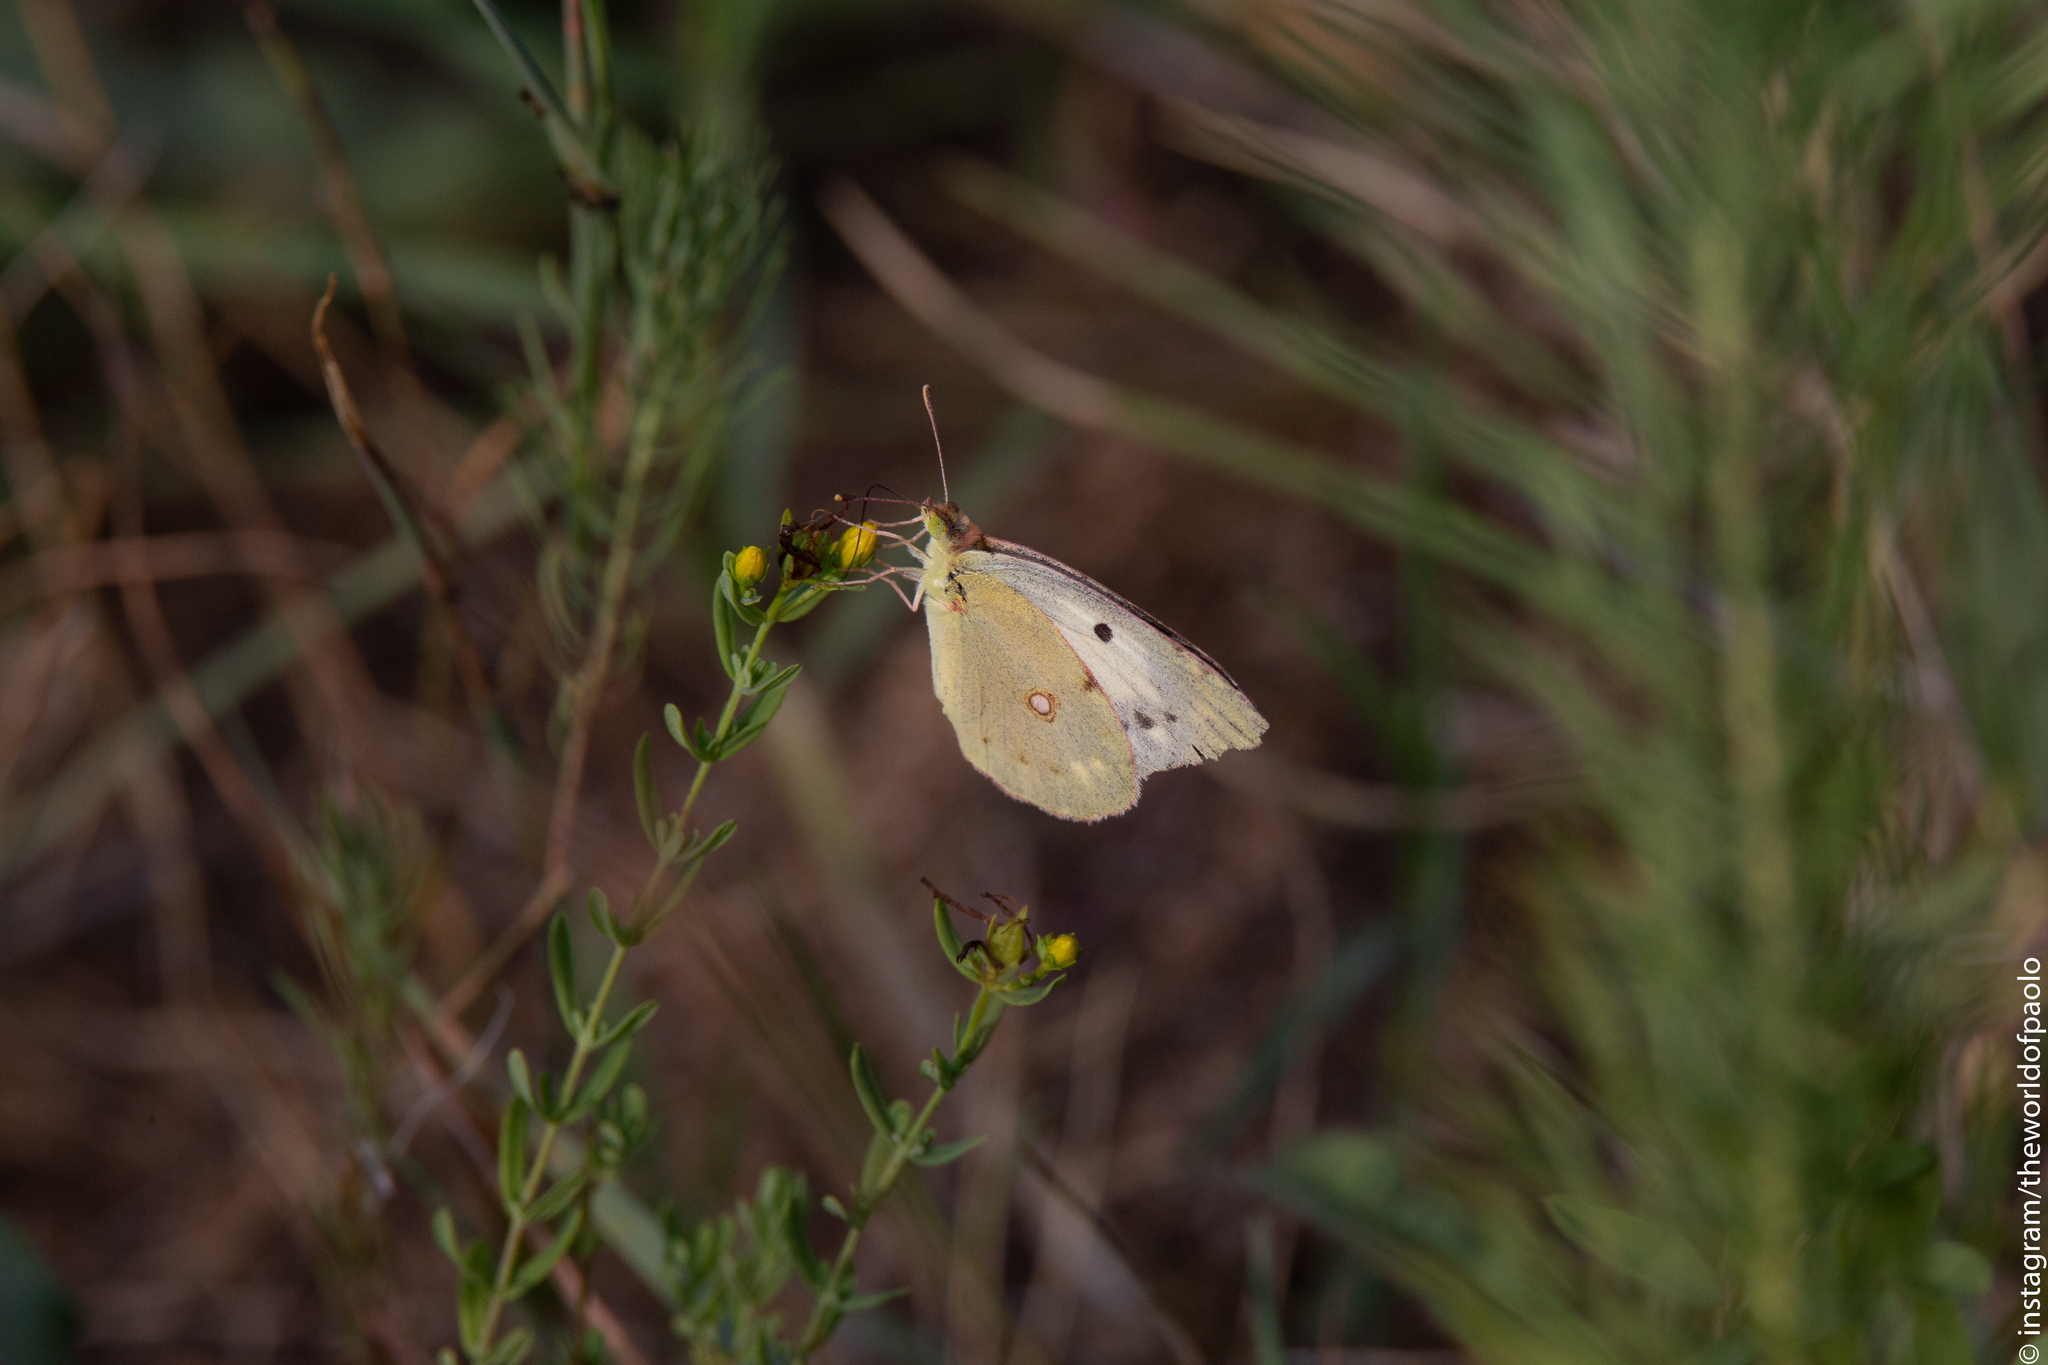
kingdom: Animalia
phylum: Arthropoda
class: Insecta
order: Lepidoptera
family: Pieridae
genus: Colias
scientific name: Colias croceus
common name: Clouded yellow
